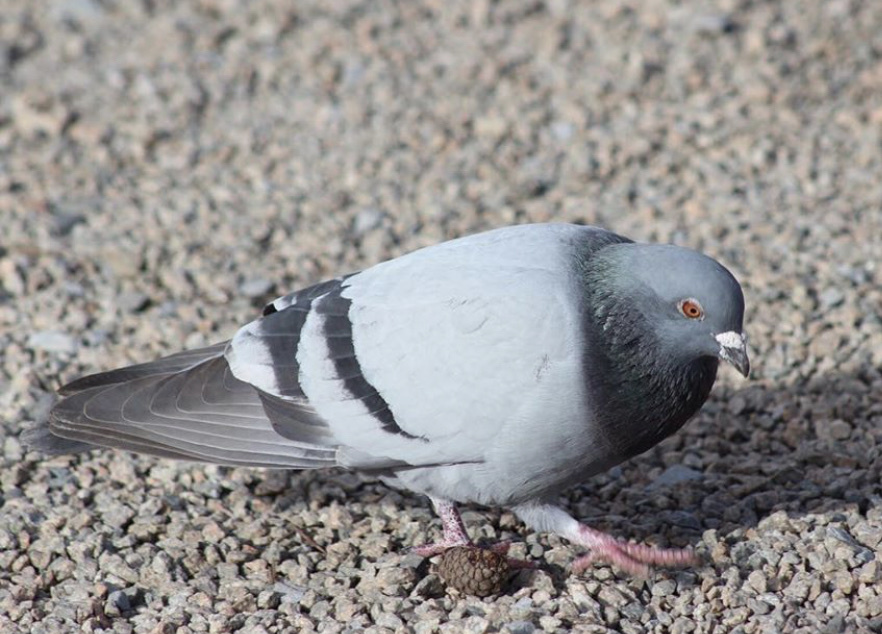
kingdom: Animalia
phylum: Chordata
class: Aves
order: Columbiformes
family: Columbidae
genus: Columba
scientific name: Columba livia
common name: Rock pigeon
